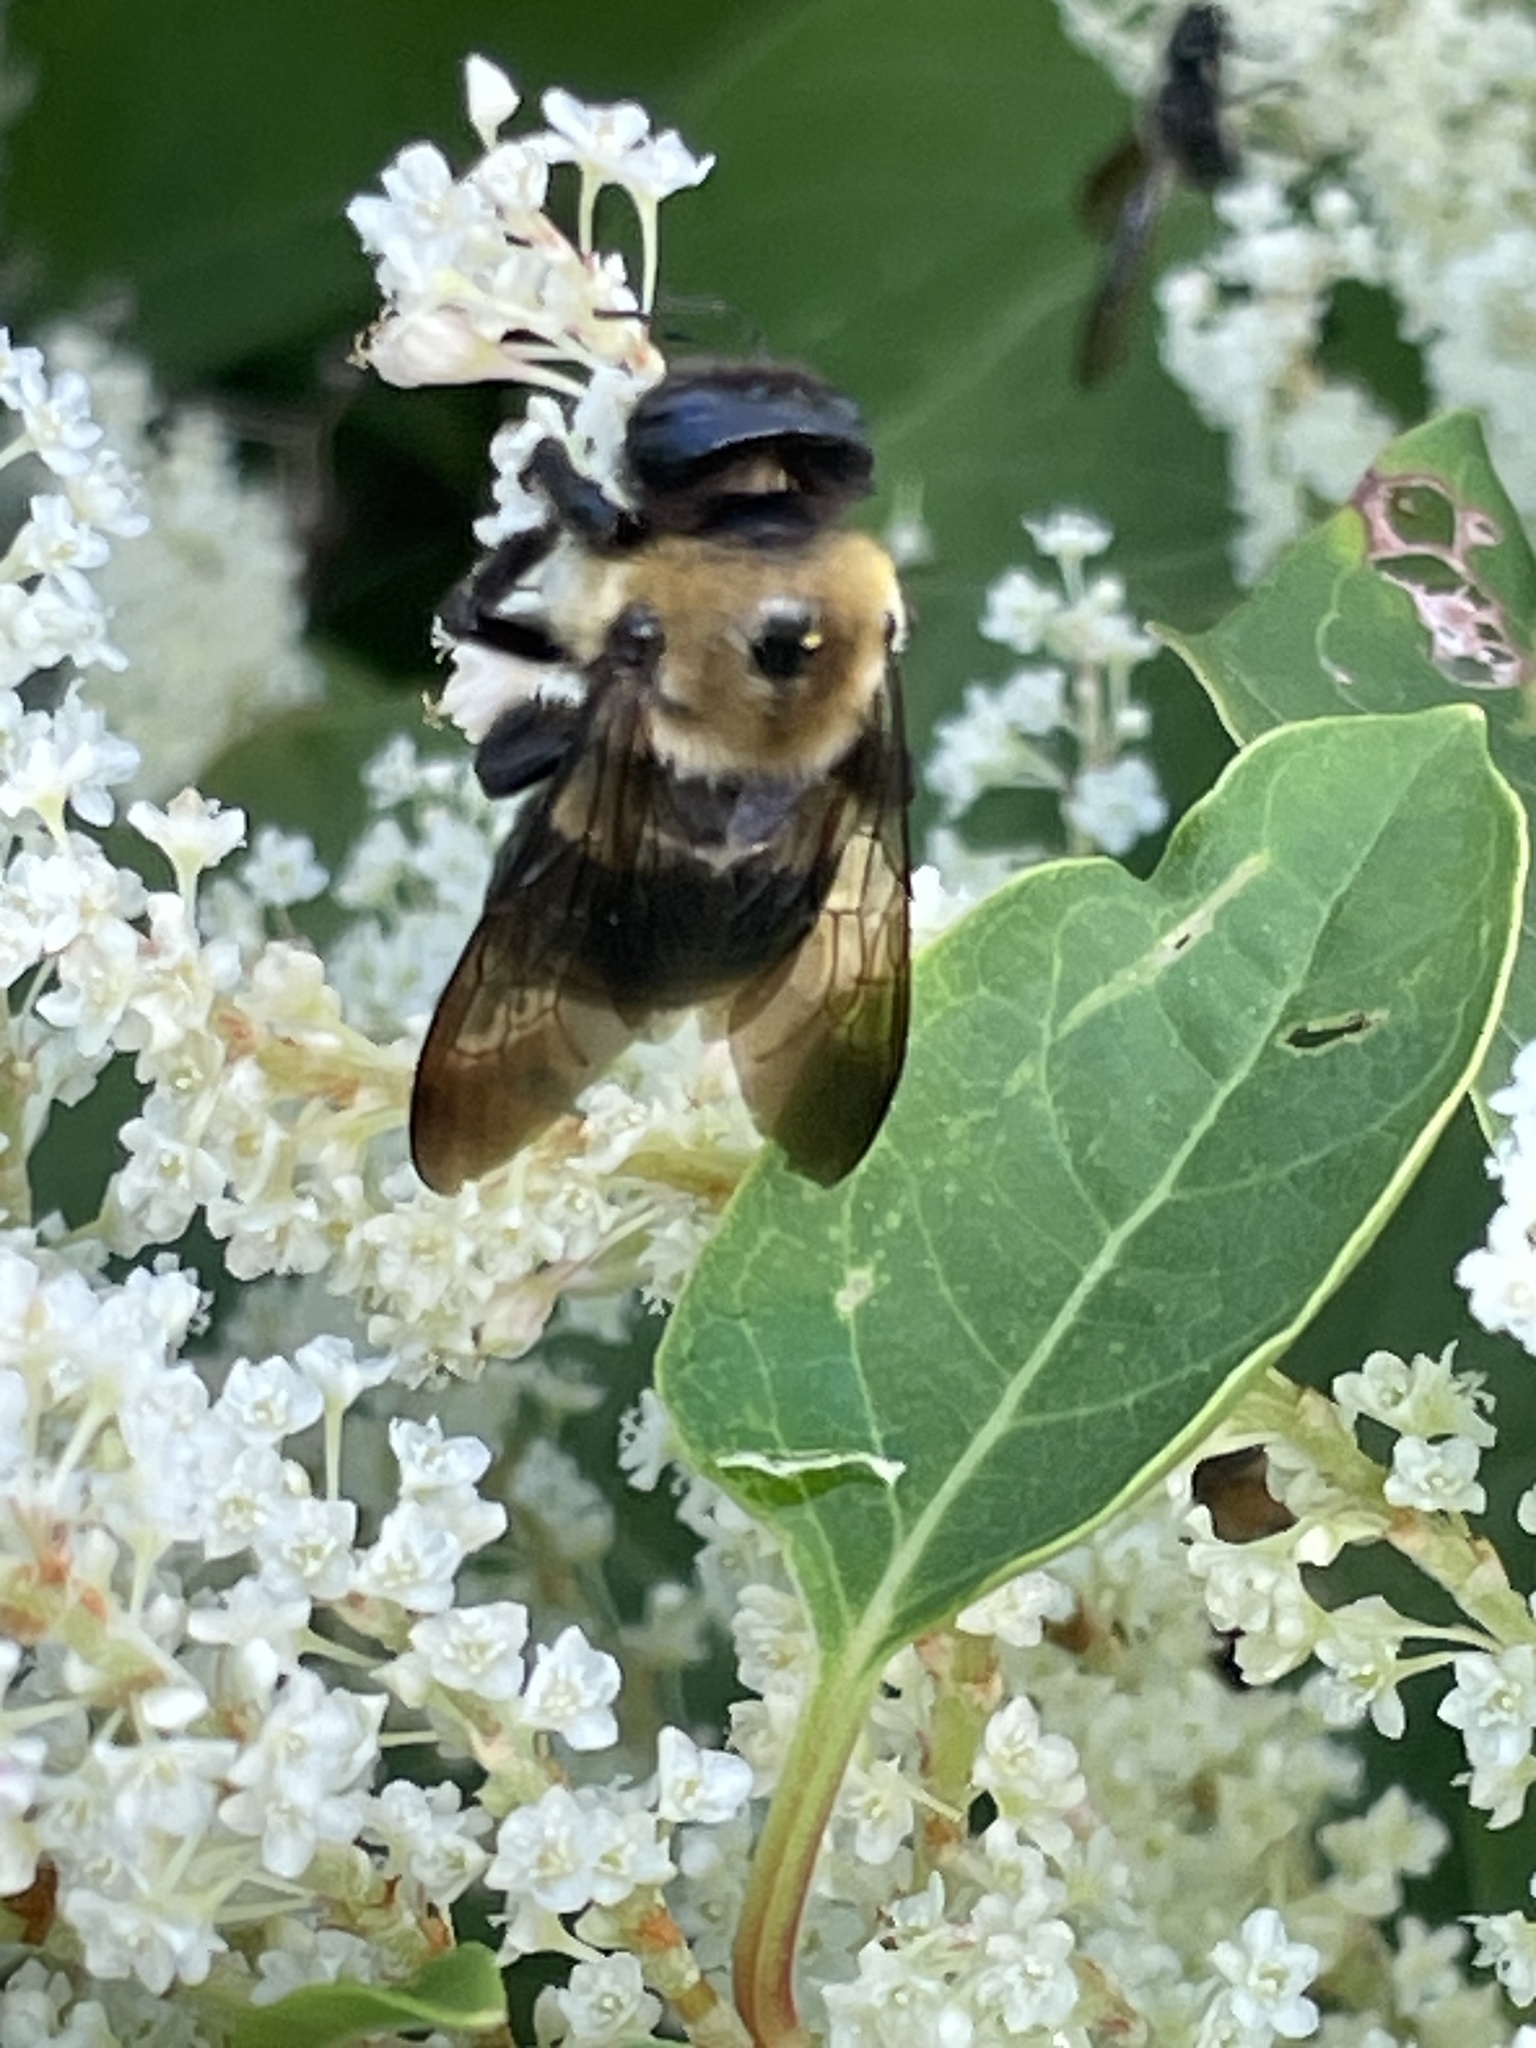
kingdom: Animalia
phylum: Arthropoda
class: Insecta
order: Hymenoptera
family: Apidae
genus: Xylocopa
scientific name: Xylocopa virginica
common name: Carpenter bee
